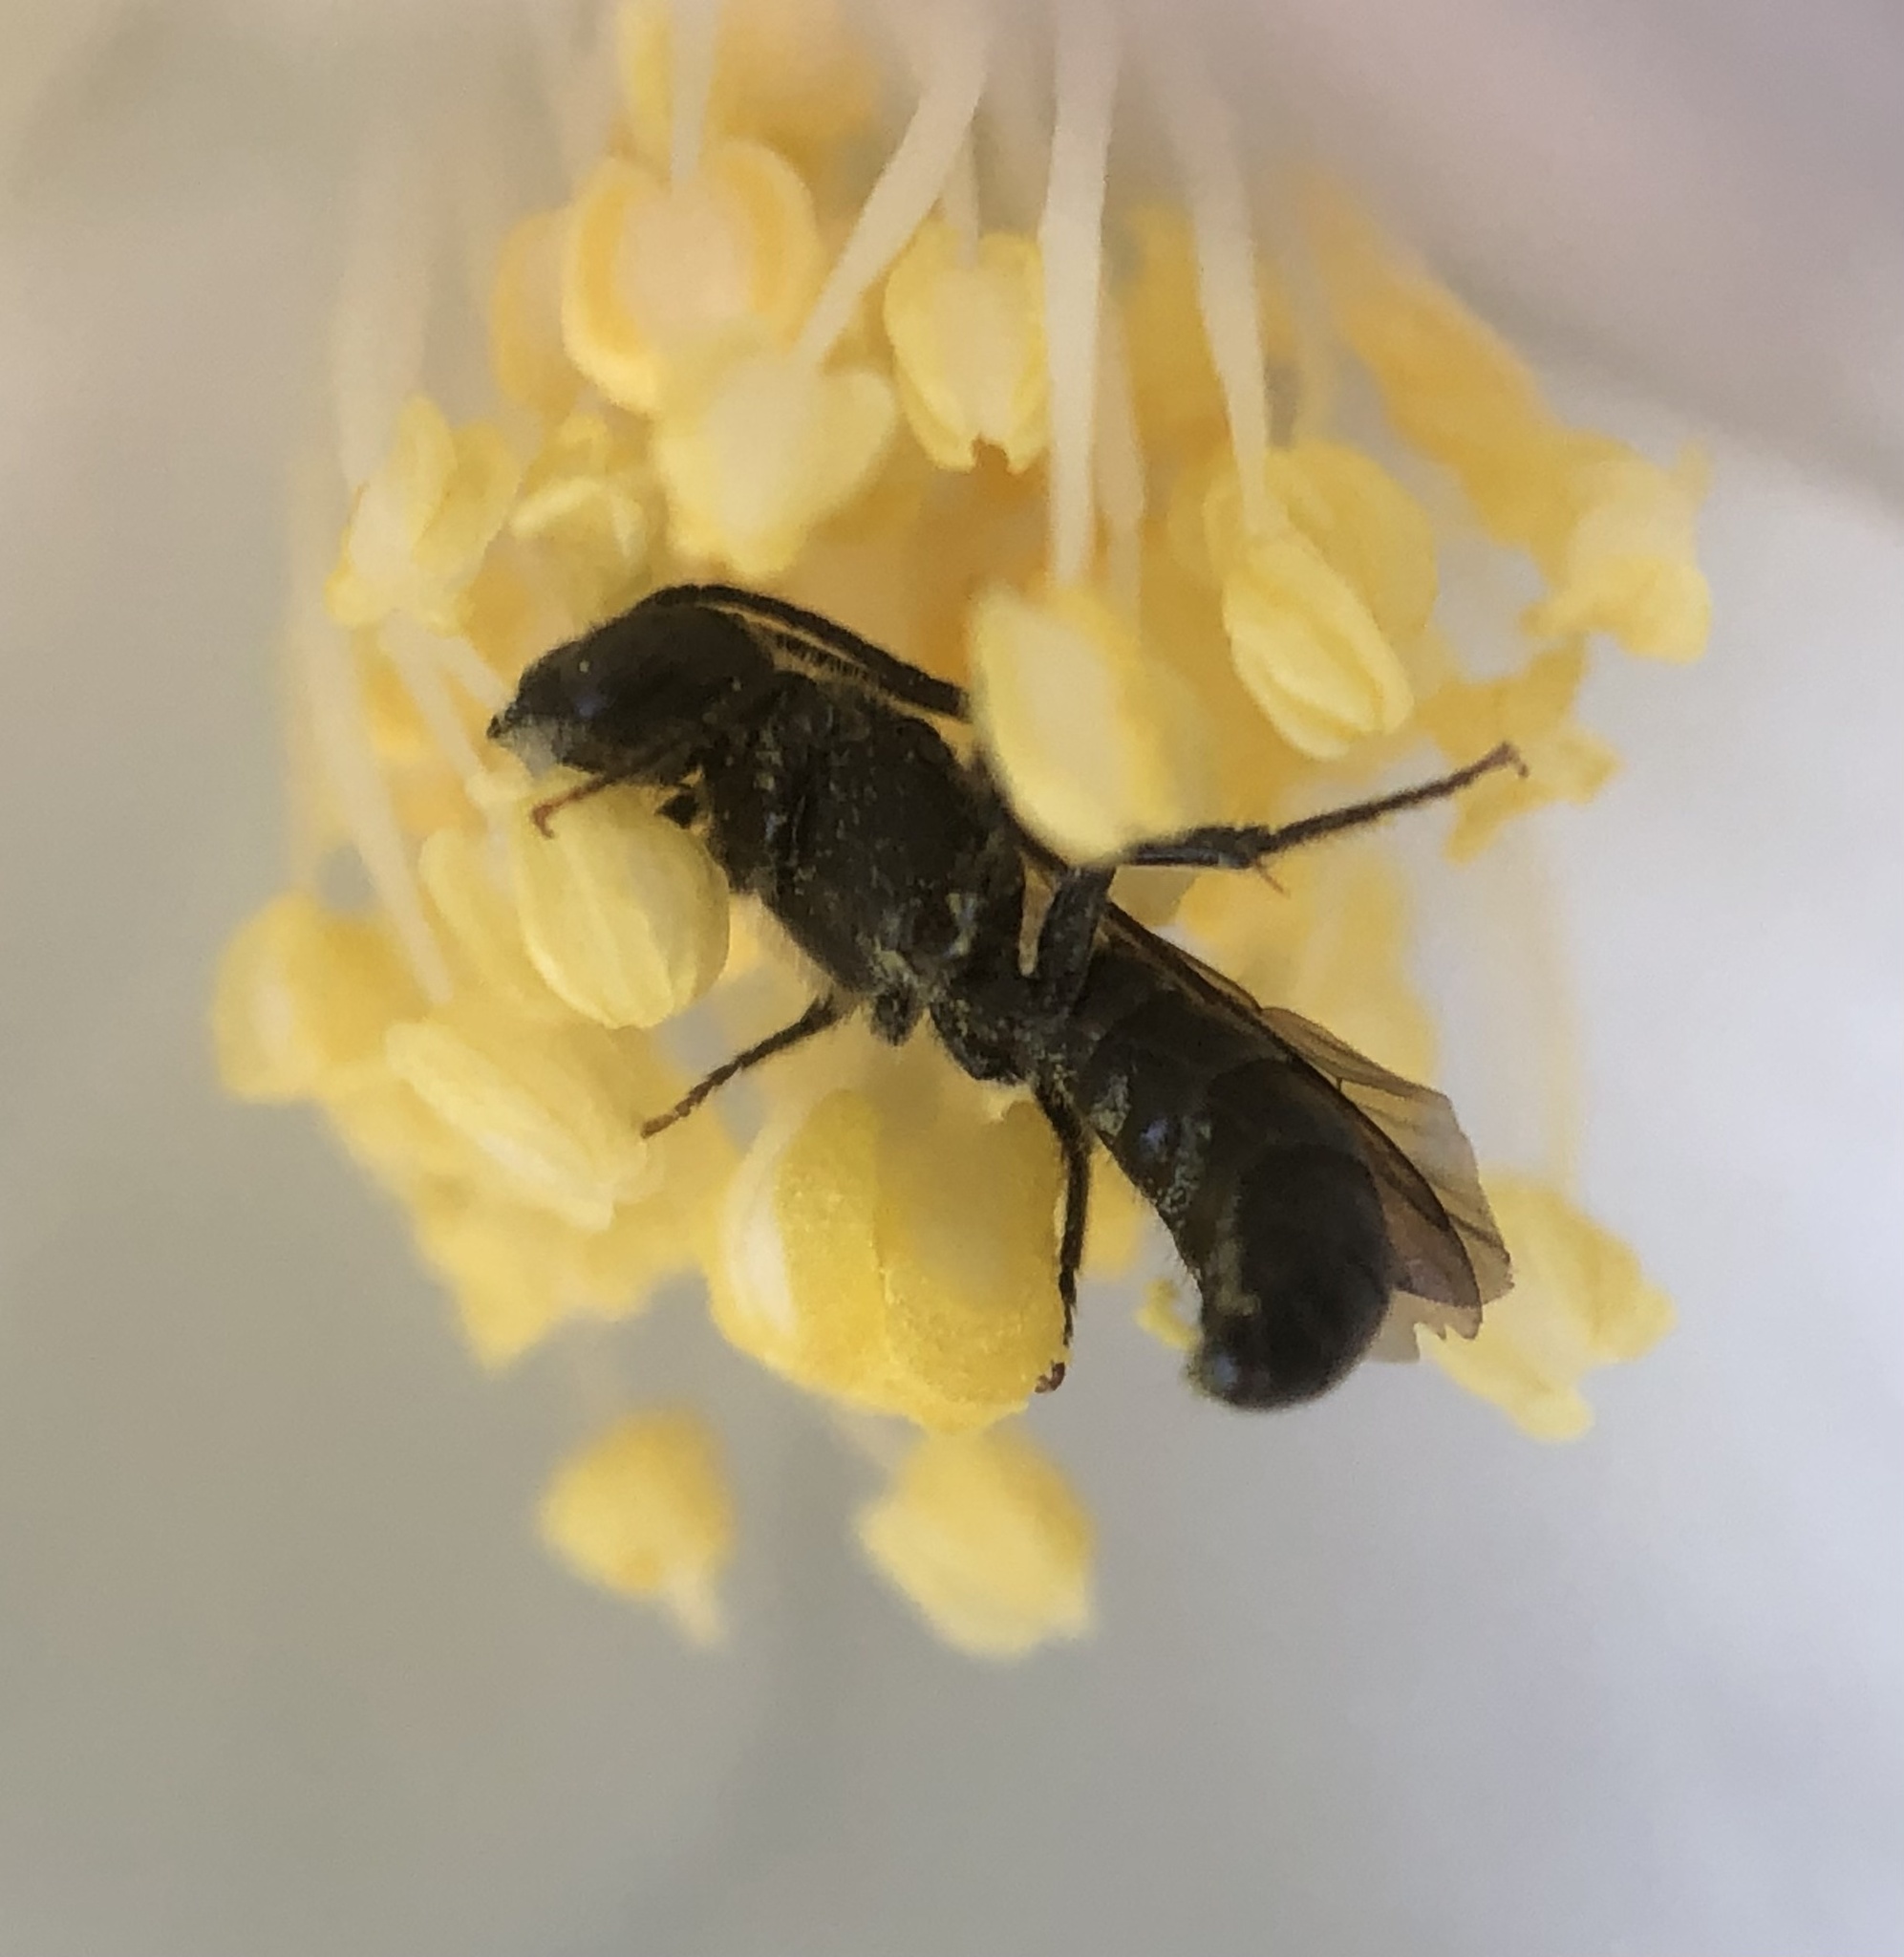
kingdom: Animalia
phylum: Arthropoda
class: Insecta
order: Hymenoptera
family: Megachilidae
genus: Chelostoma
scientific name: Chelostoma philadelphi
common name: Mock-orange scissor bee
